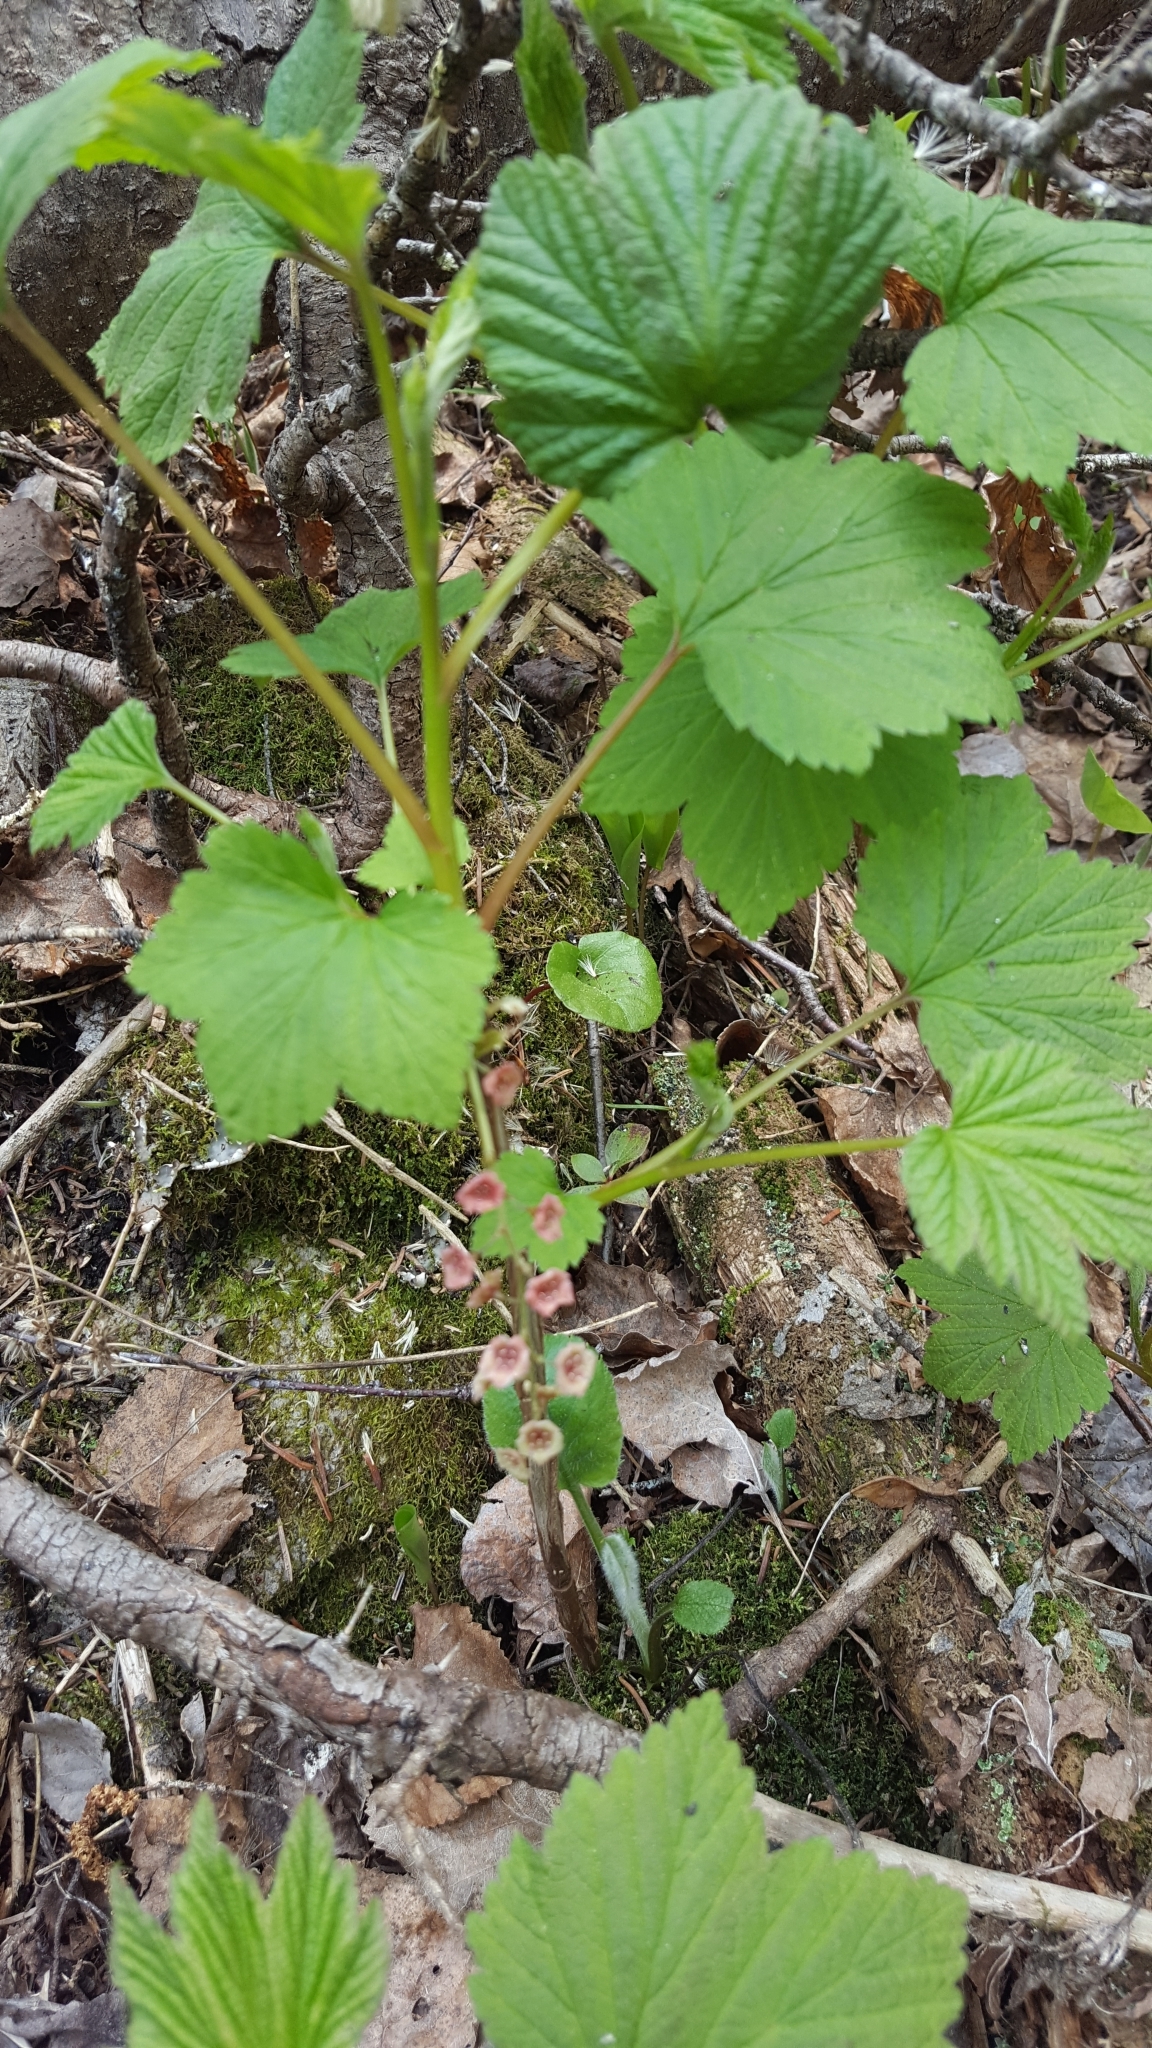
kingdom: Plantae
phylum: Tracheophyta
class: Magnoliopsida
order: Saxifragales
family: Grossulariaceae
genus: Ribes
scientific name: Ribes triste
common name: Swamp red currant
